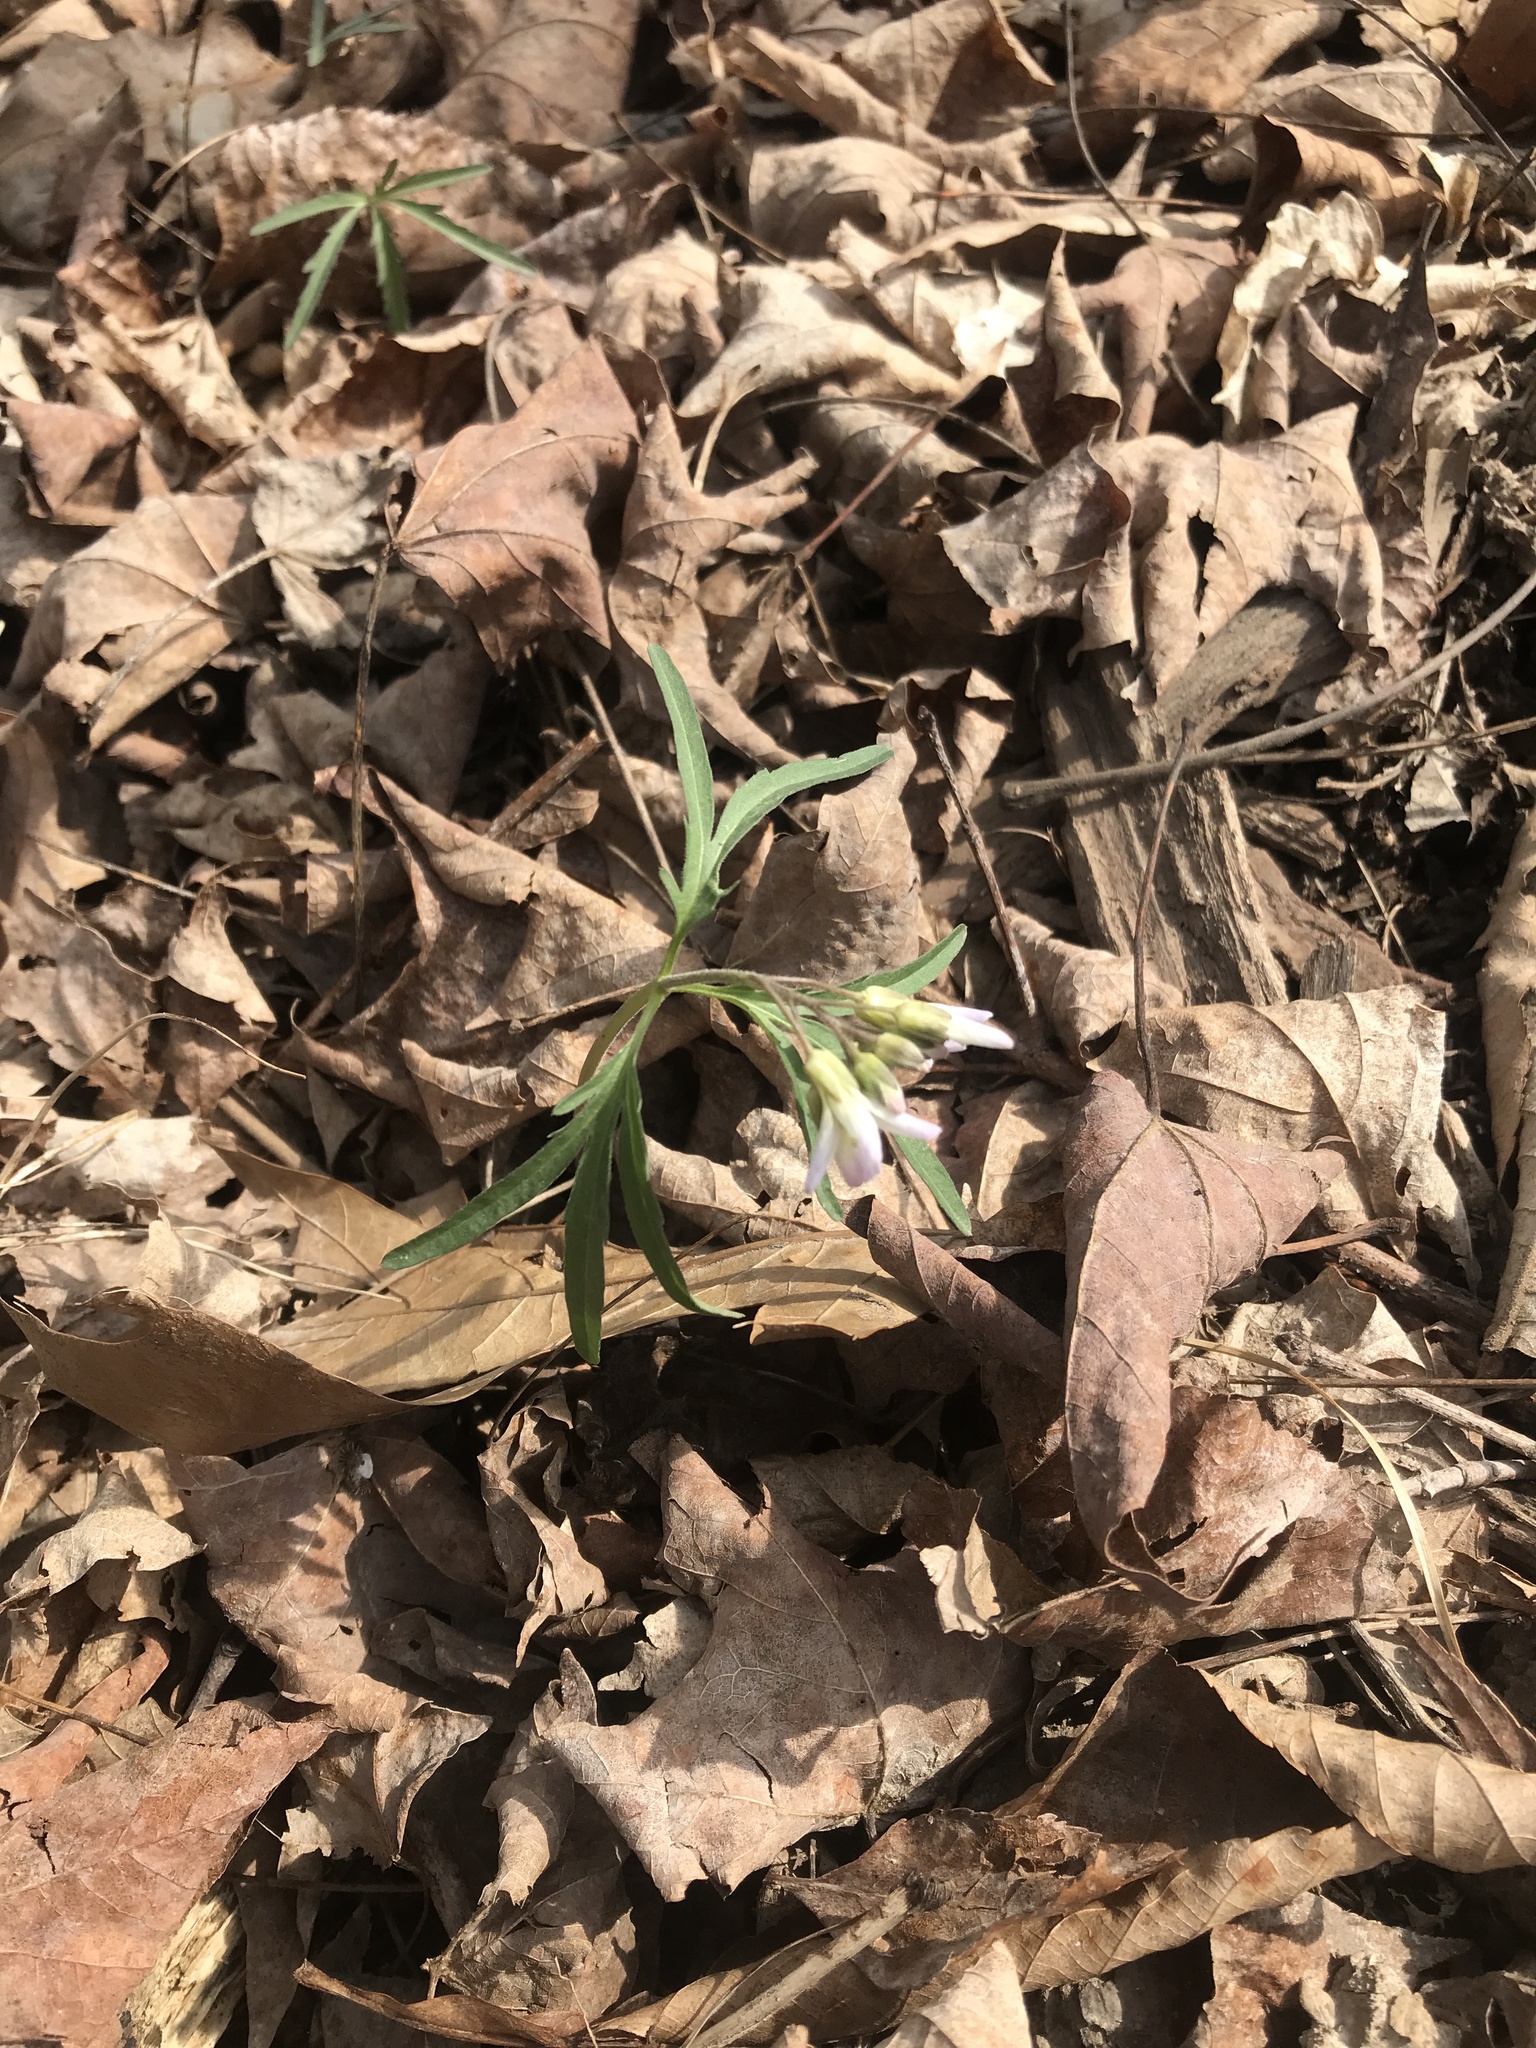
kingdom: Plantae
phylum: Tracheophyta
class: Magnoliopsida
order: Brassicales
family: Brassicaceae
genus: Cardamine
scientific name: Cardamine concatenata
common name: Cut-leaf toothcup
